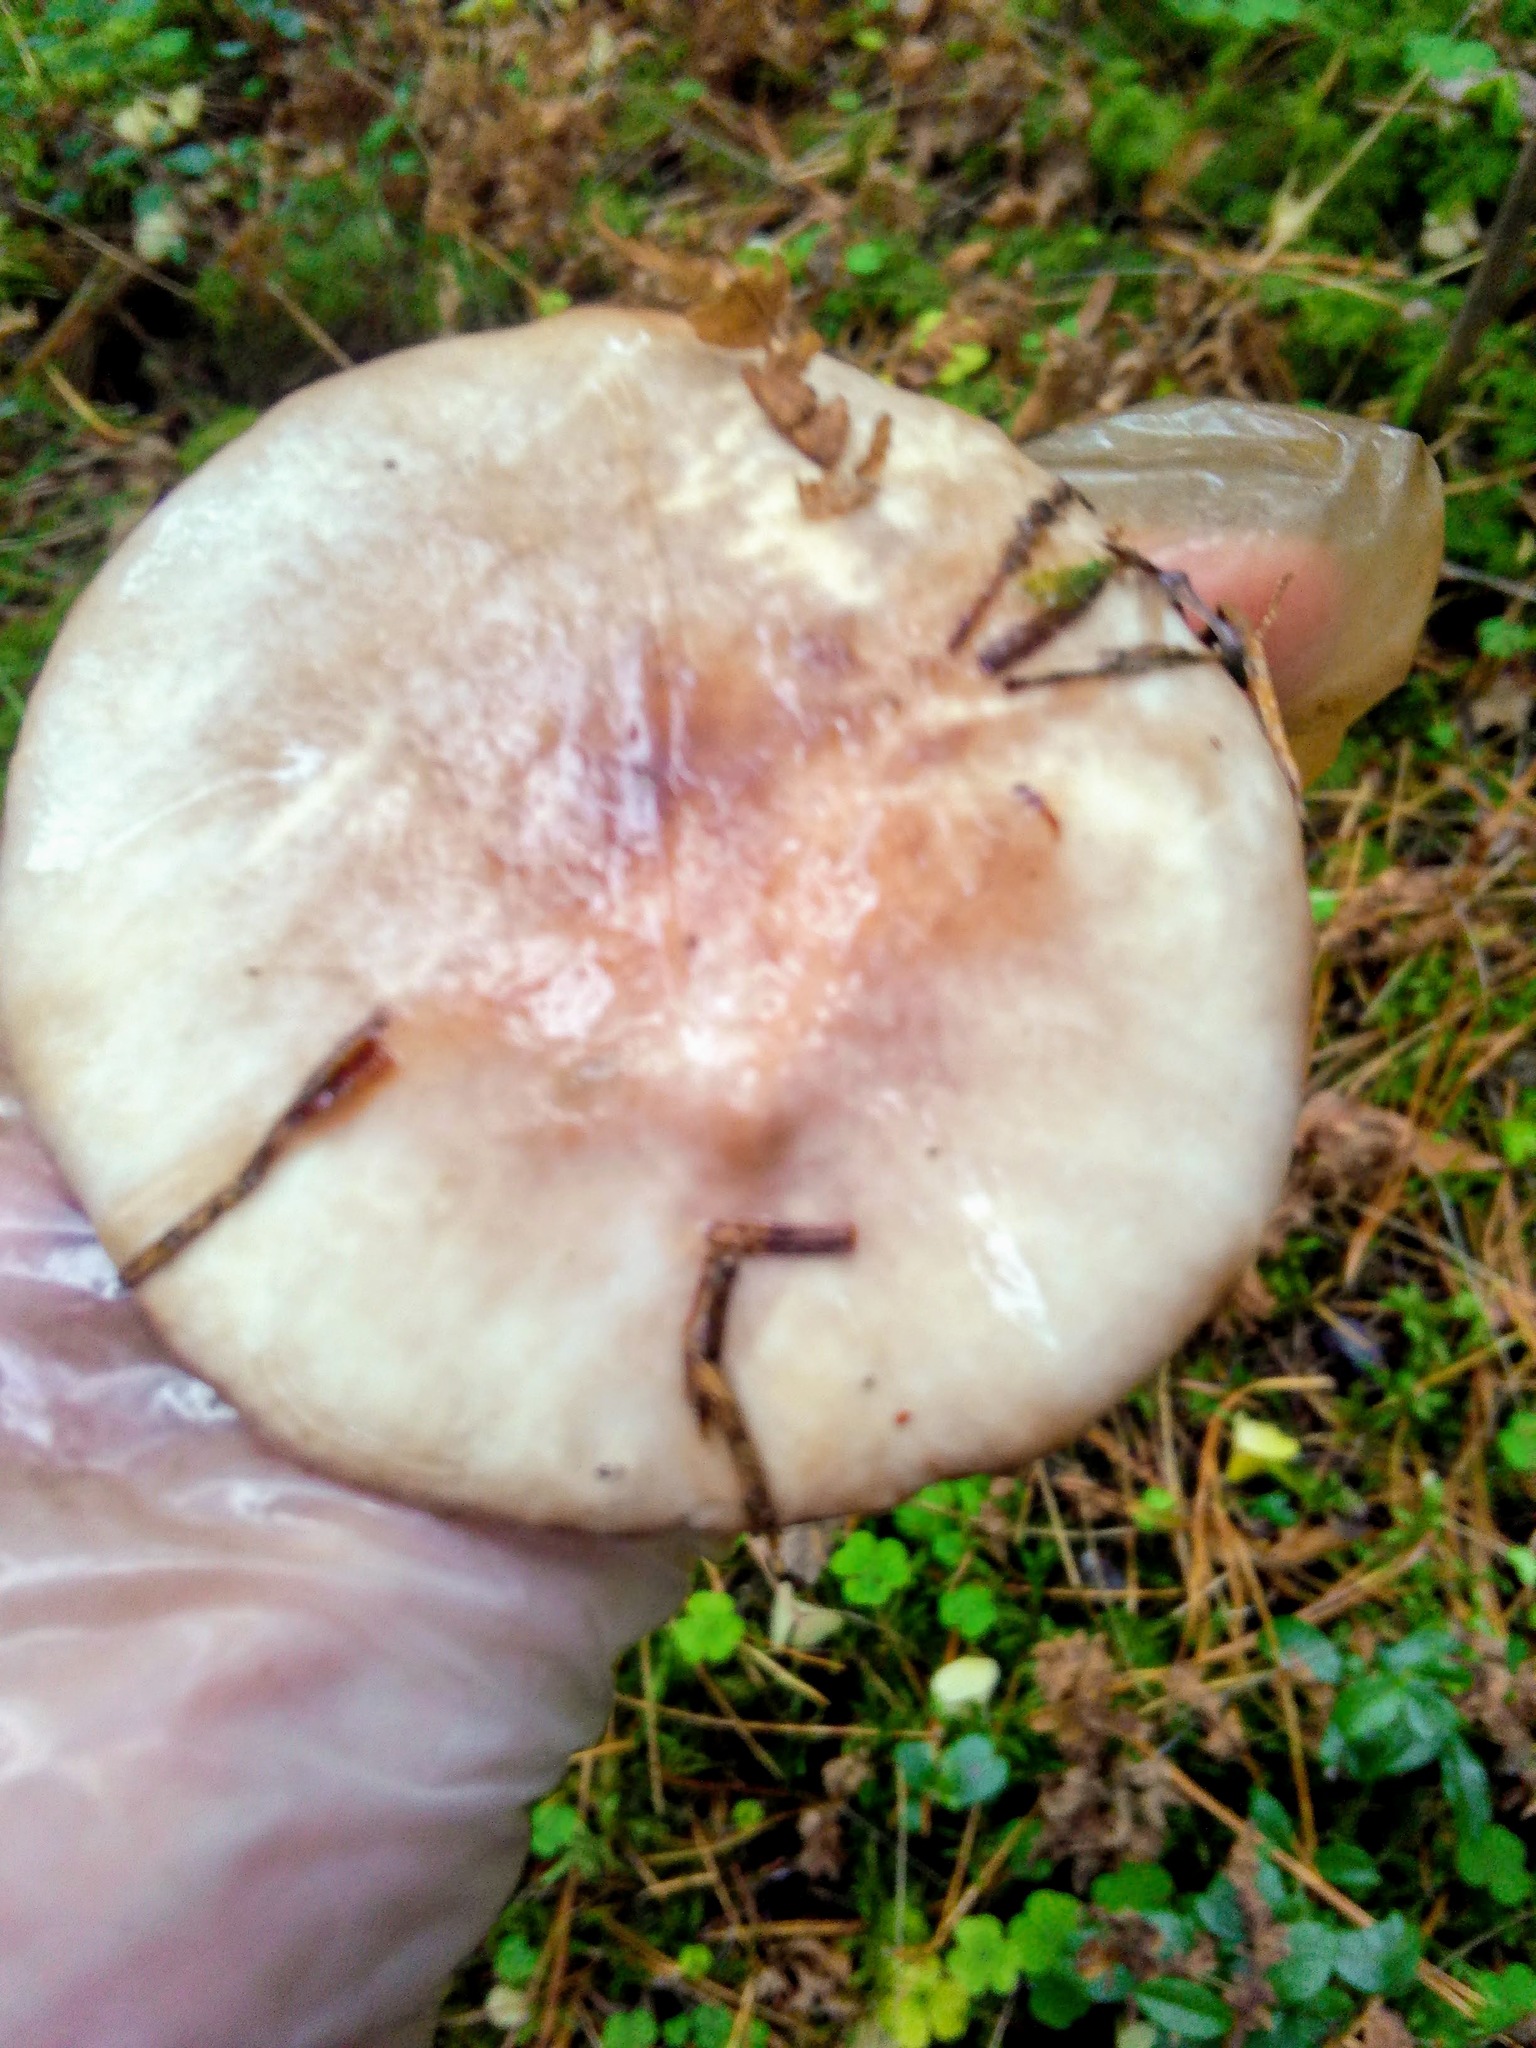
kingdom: Fungi
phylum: Basidiomycota
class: Agaricomycetes
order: Boletales
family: Suillaceae
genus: Suillus
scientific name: Suillus placidus
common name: Slippery white bolete
